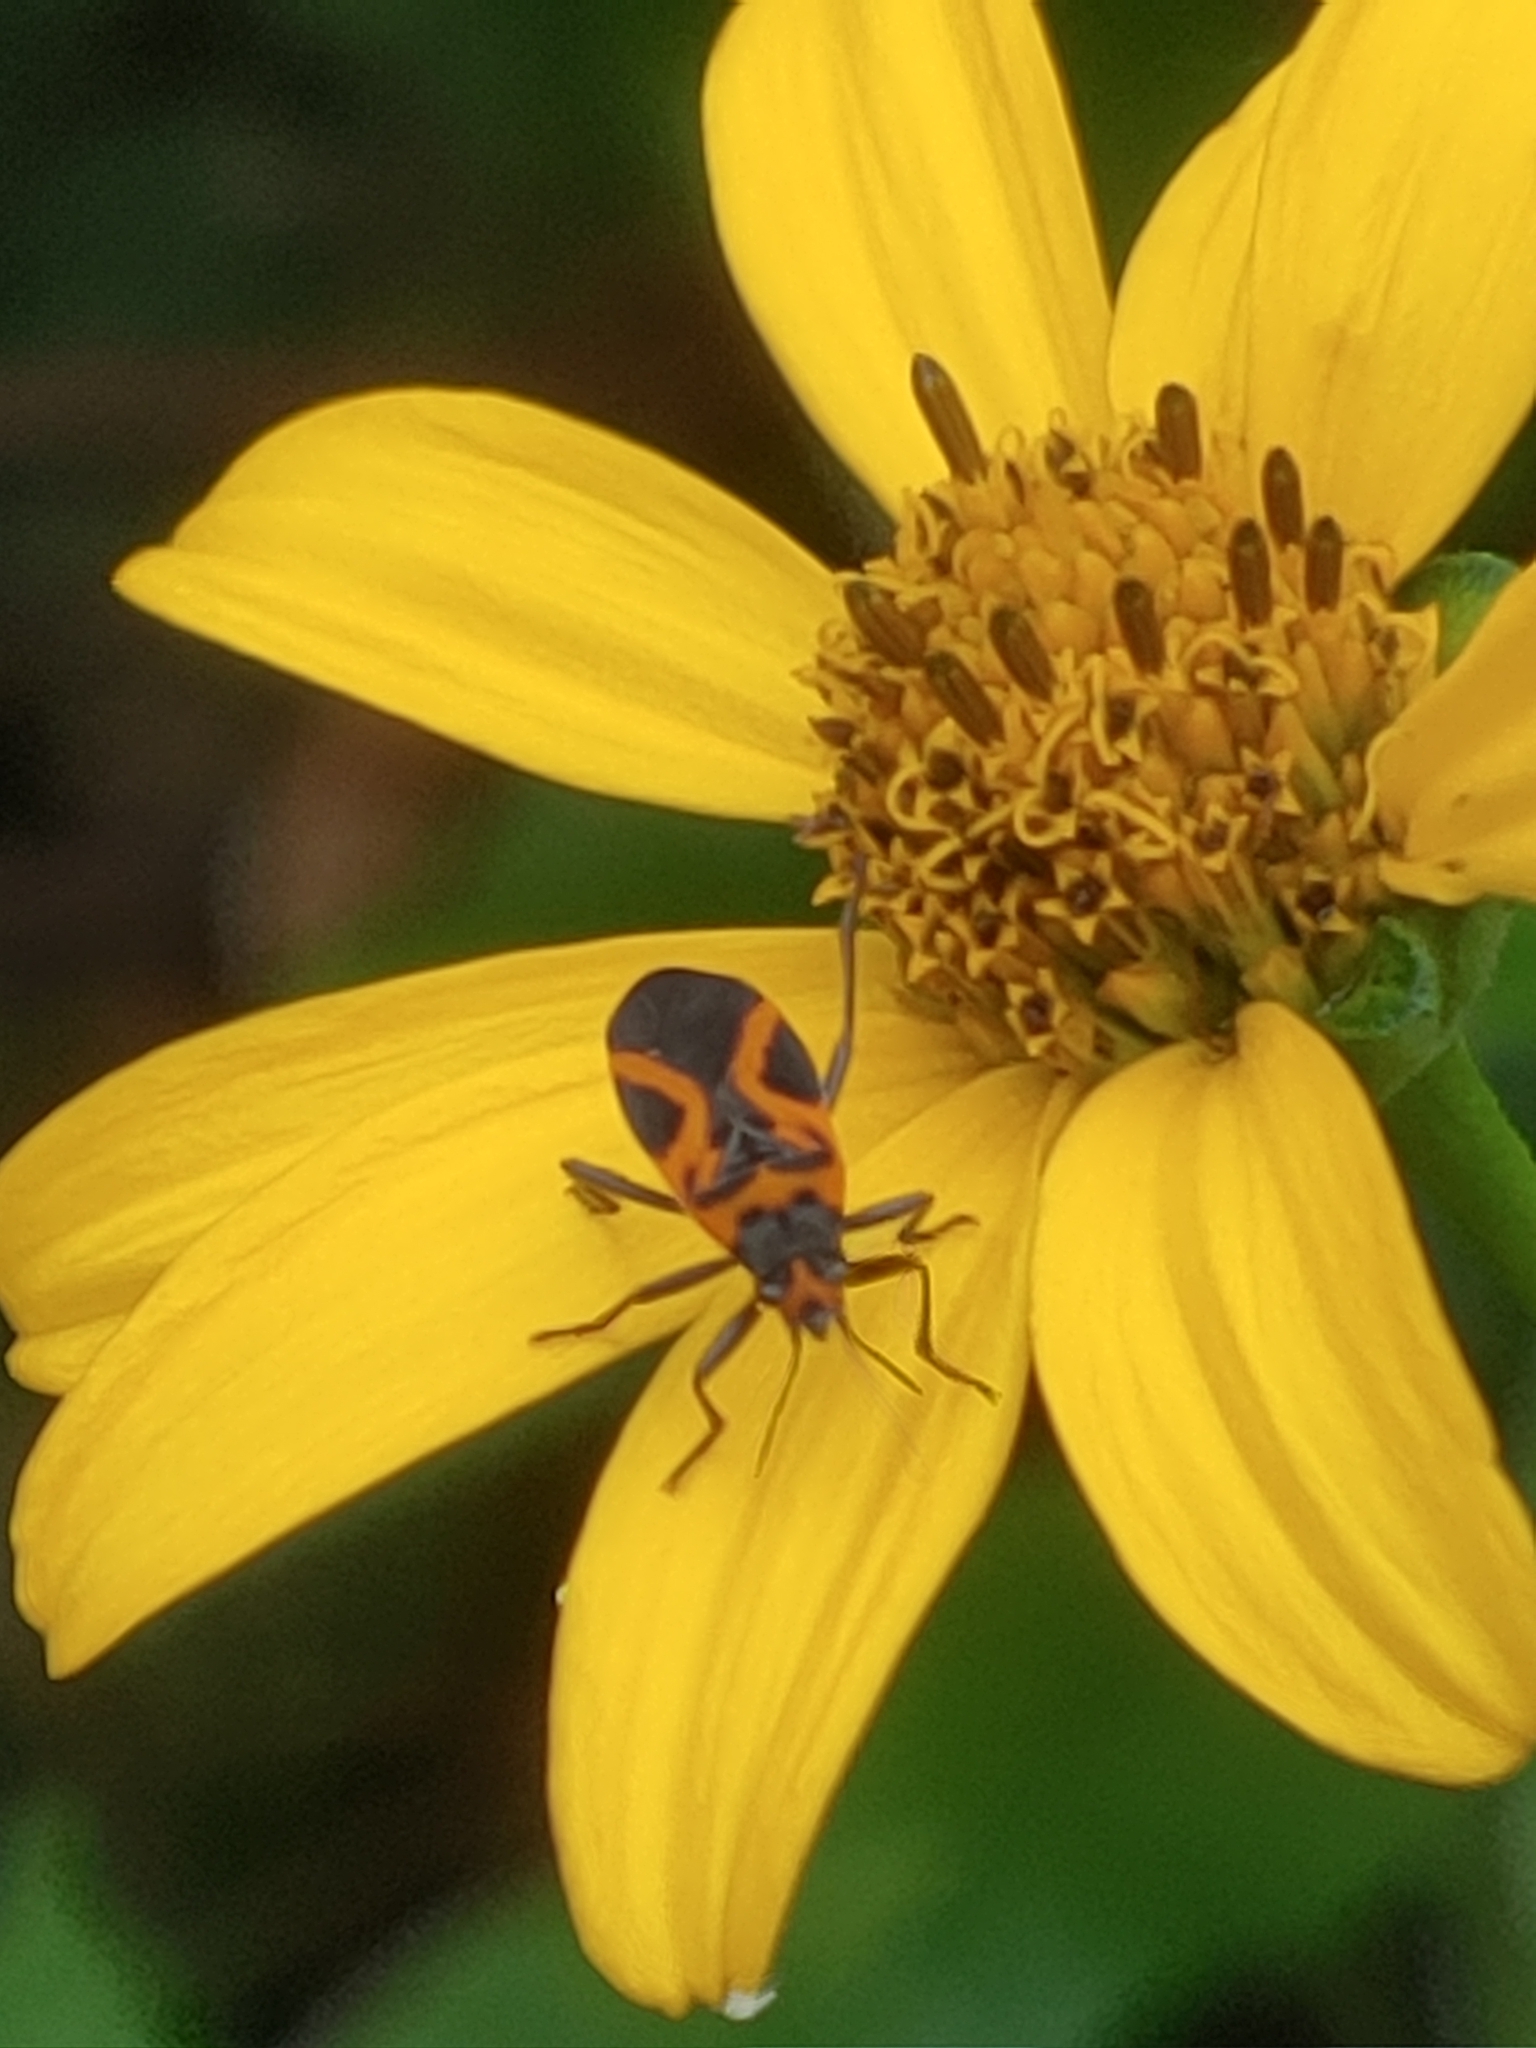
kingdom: Animalia
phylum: Arthropoda
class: Insecta
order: Hemiptera
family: Lygaeidae
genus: Lygaeus
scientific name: Lygaeus turcicus
